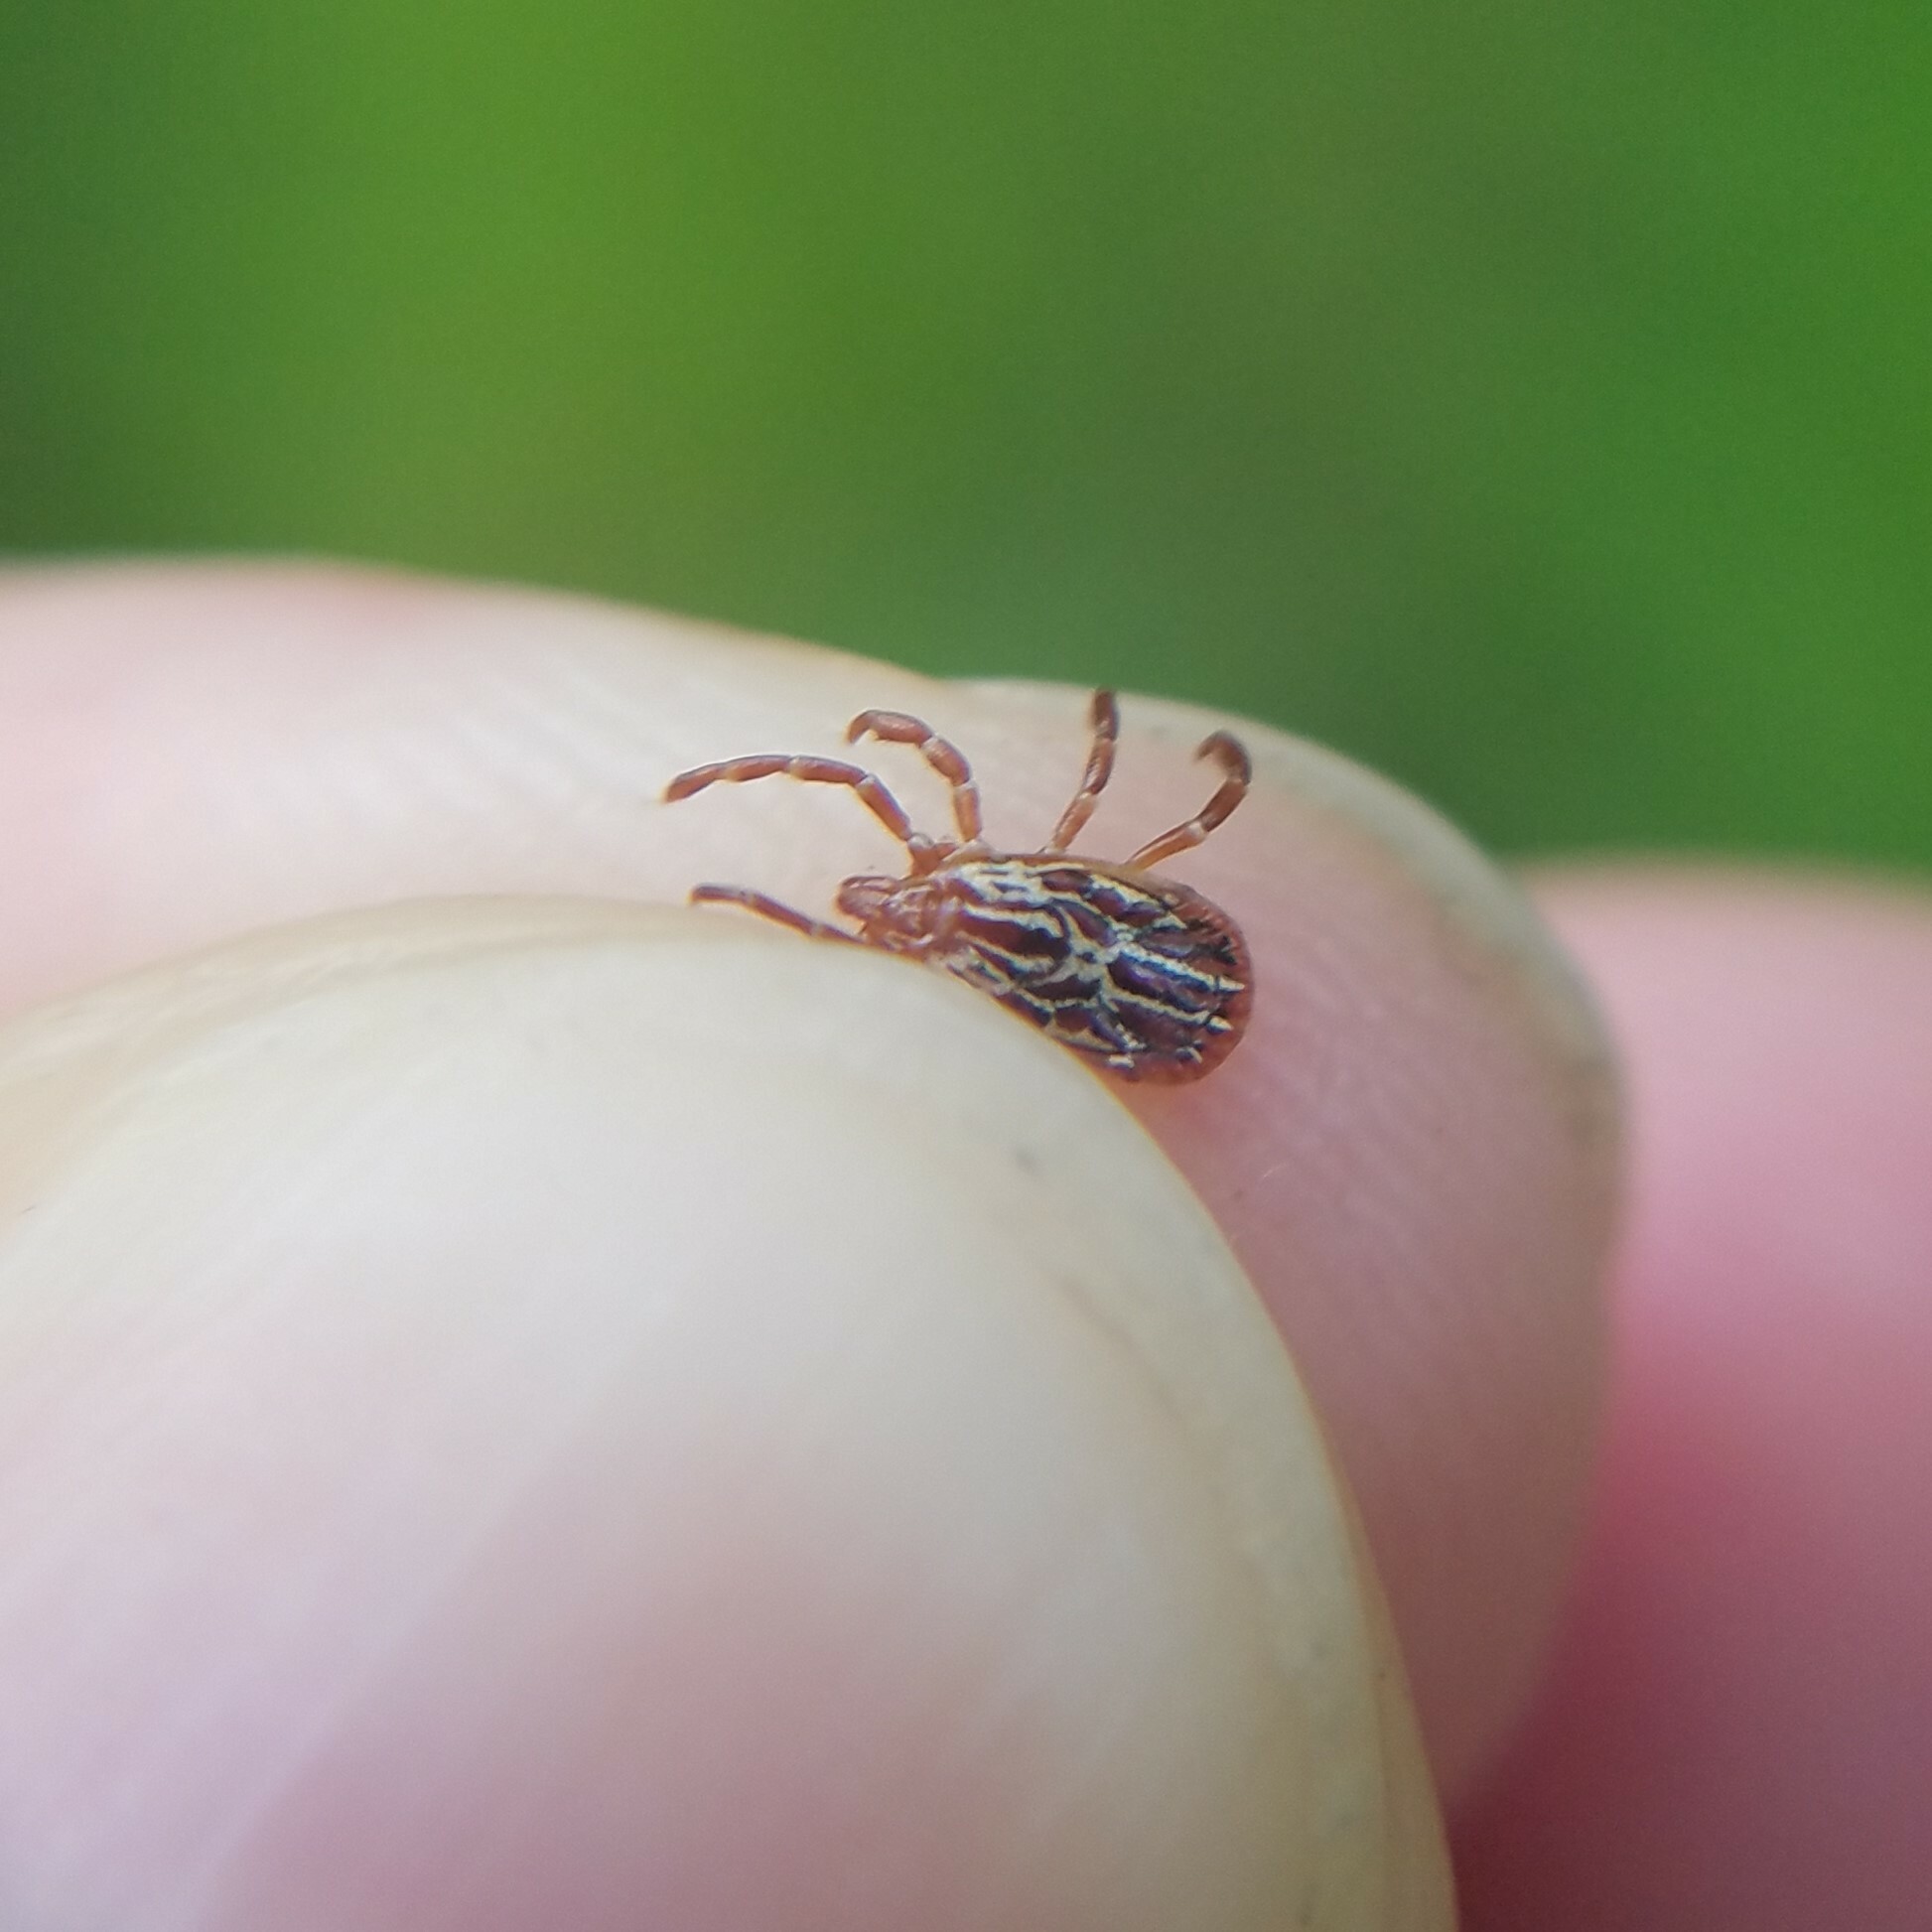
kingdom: Animalia
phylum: Arthropoda
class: Arachnida
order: Ixodida
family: Ixodidae
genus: Amblyomma
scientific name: Amblyomma maculatum
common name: Gulf coast tick
